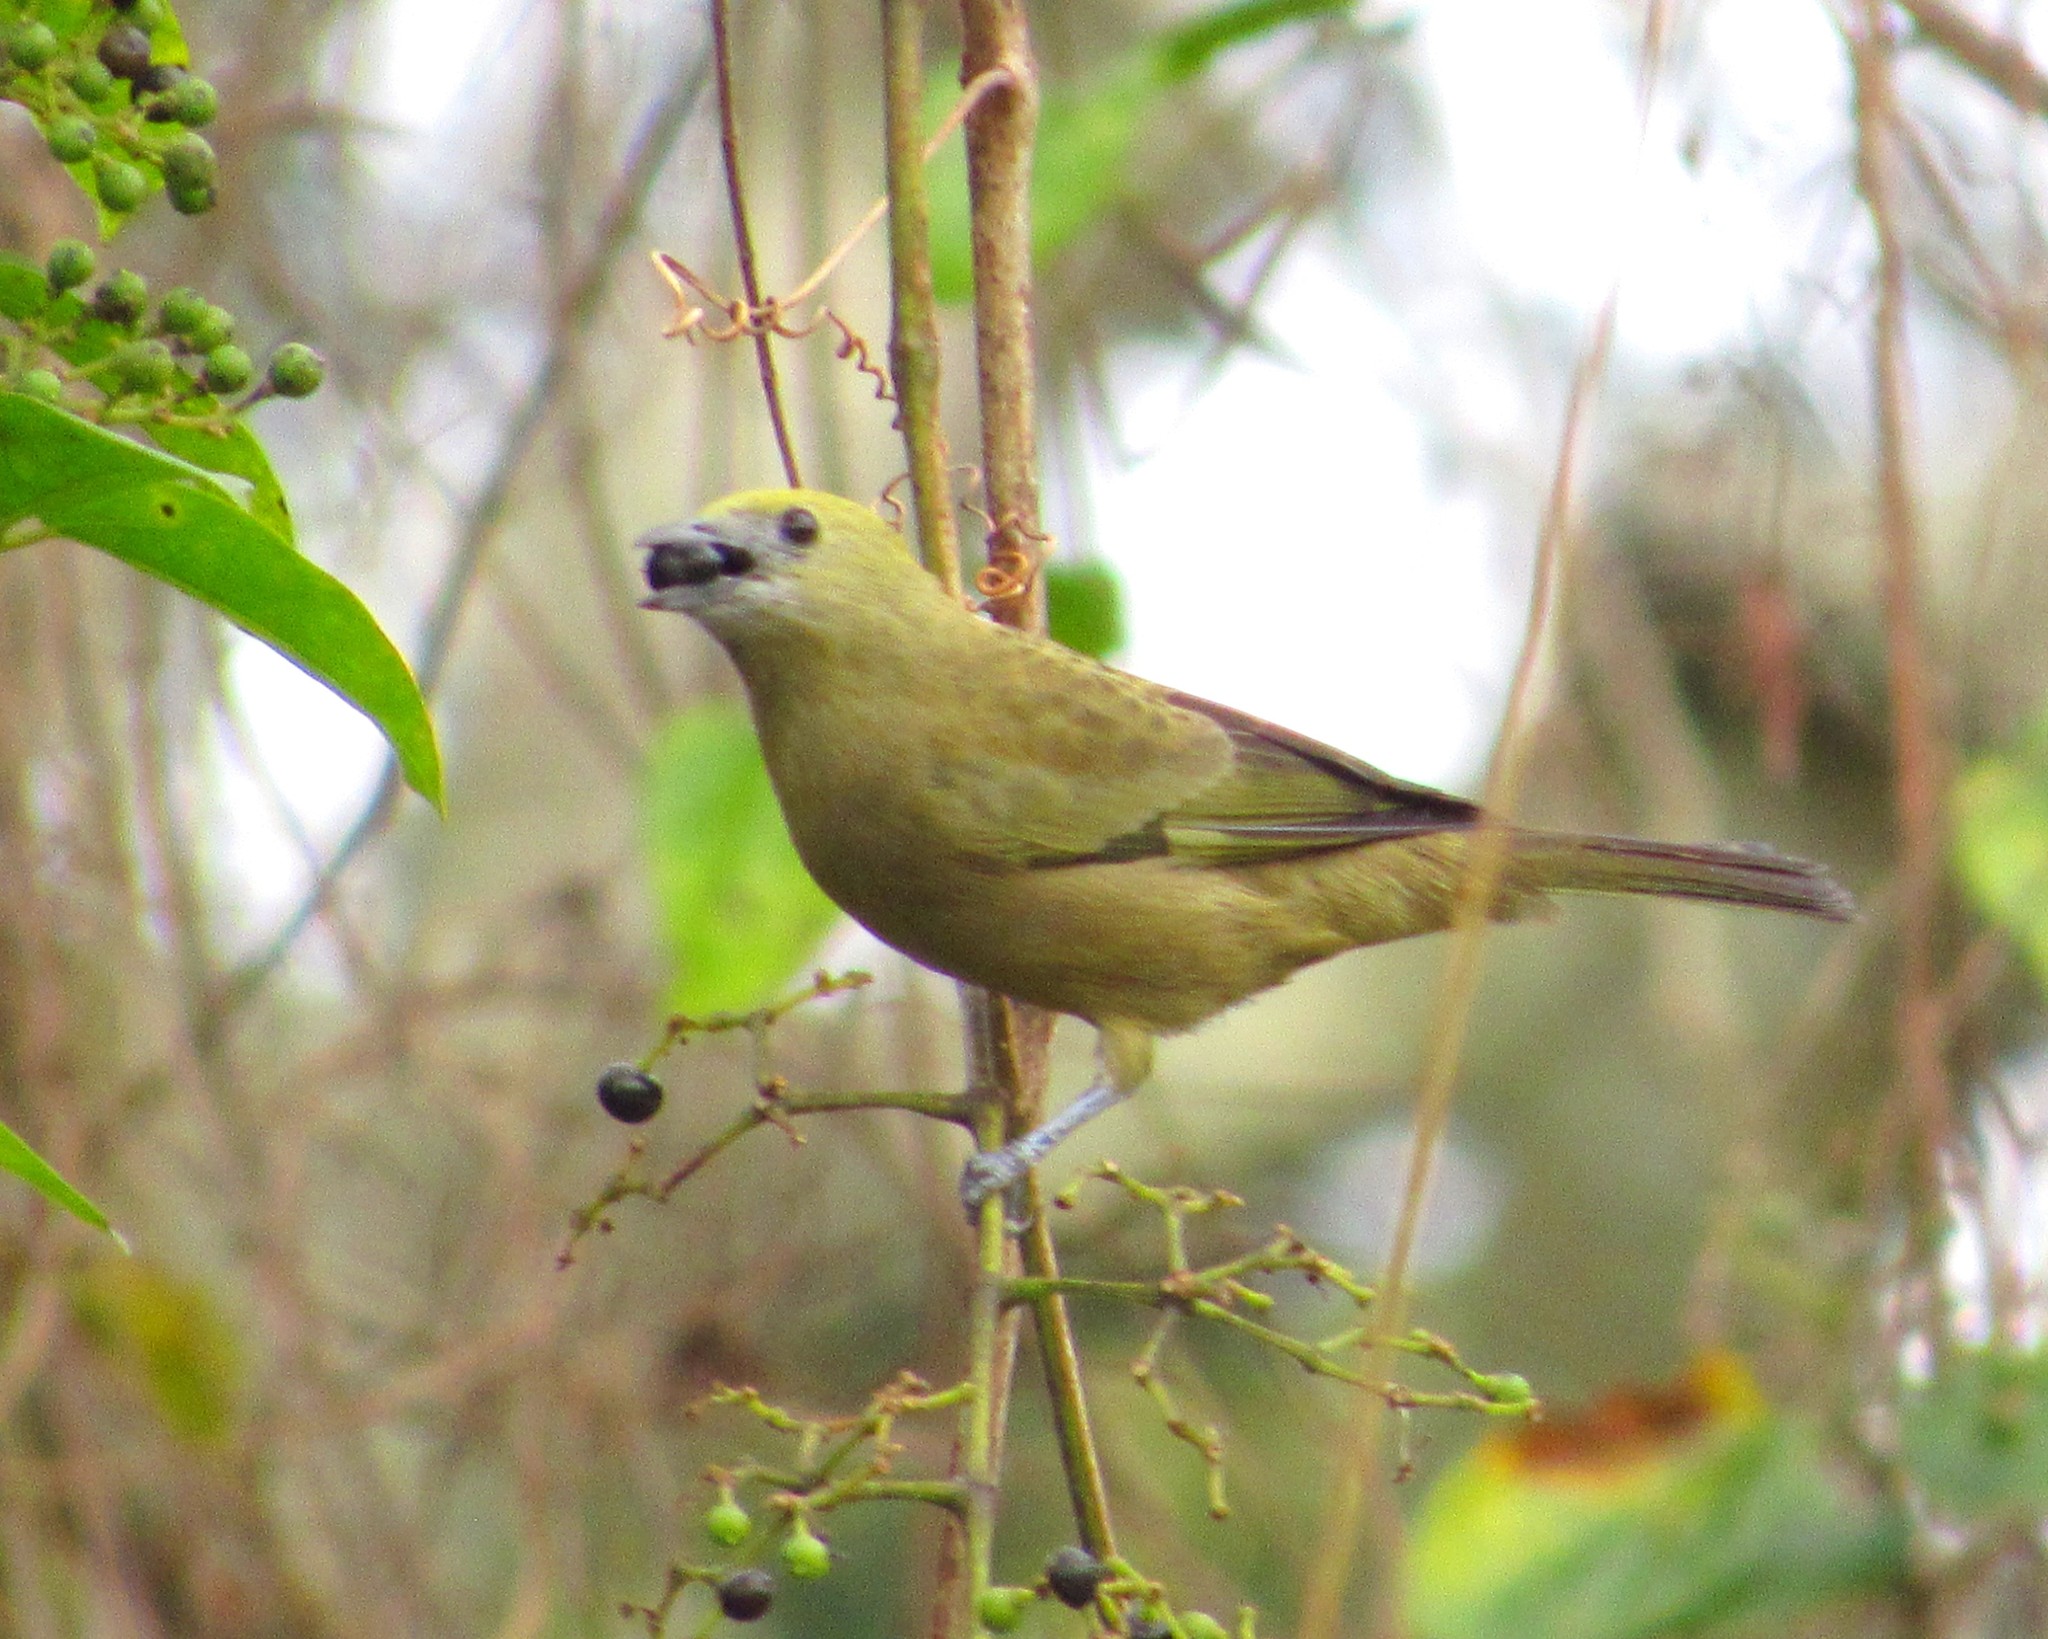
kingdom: Animalia
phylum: Chordata
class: Aves
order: Passeriformes
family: Thraupidae
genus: Thraupis
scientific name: Thraupis palmarum
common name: Palm tanager
